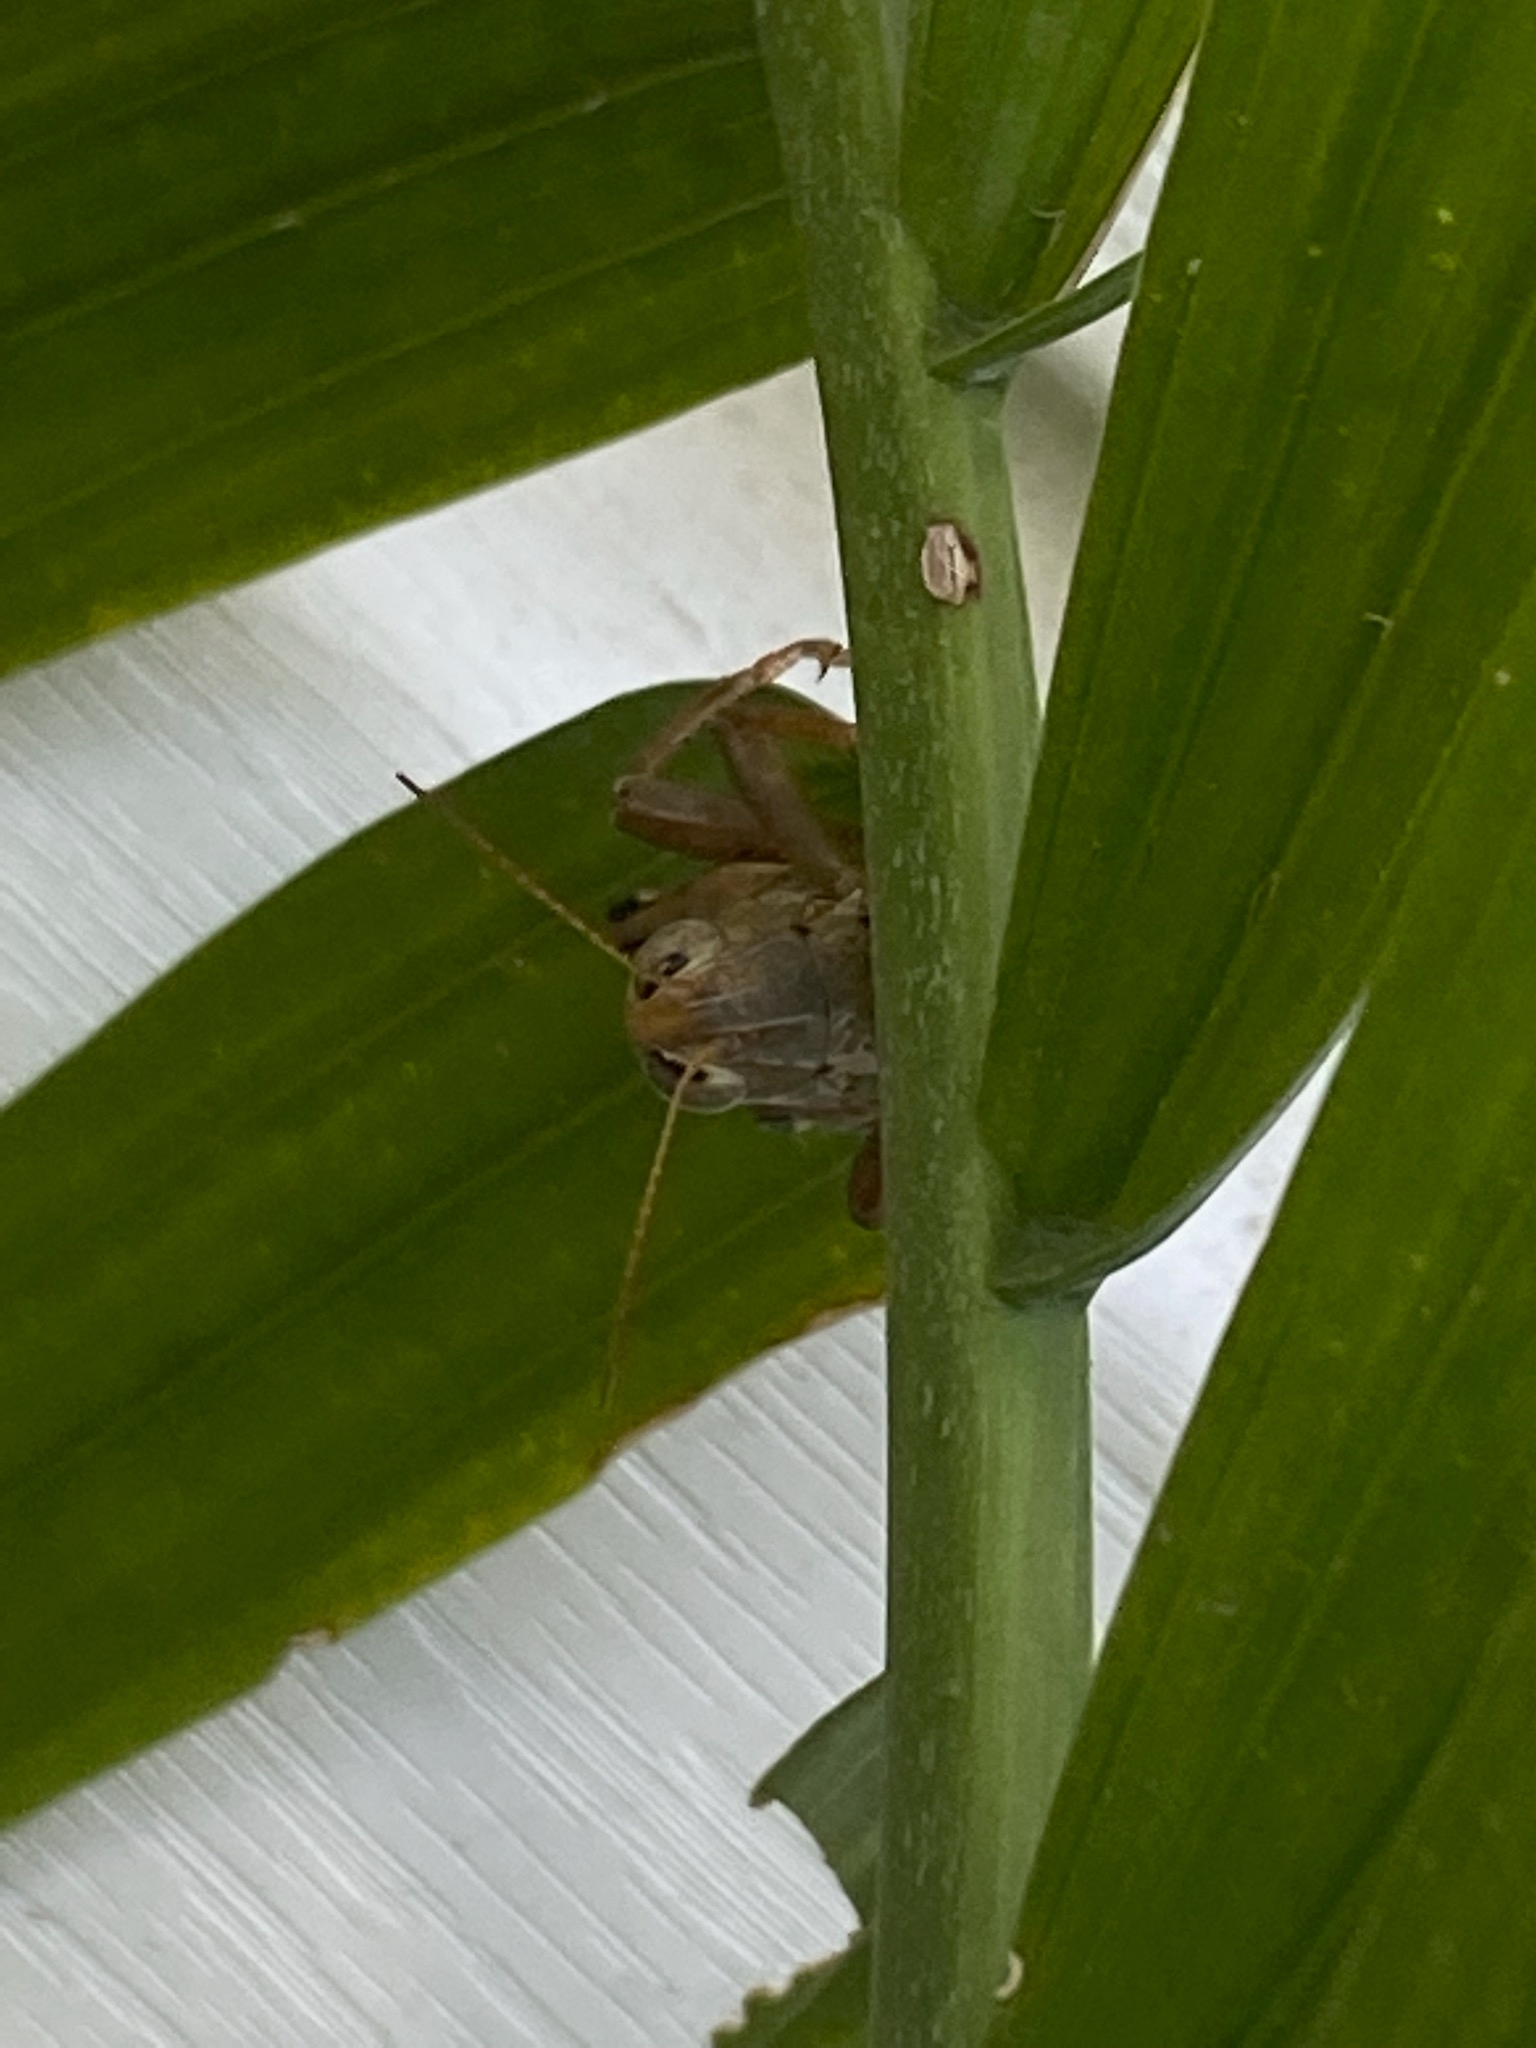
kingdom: Animalia
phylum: Arthropoda
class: Insecta
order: Orthoptera
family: Acrididae
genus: Melanoplus
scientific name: Melanoplus differentialis
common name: Differential grasshopper
